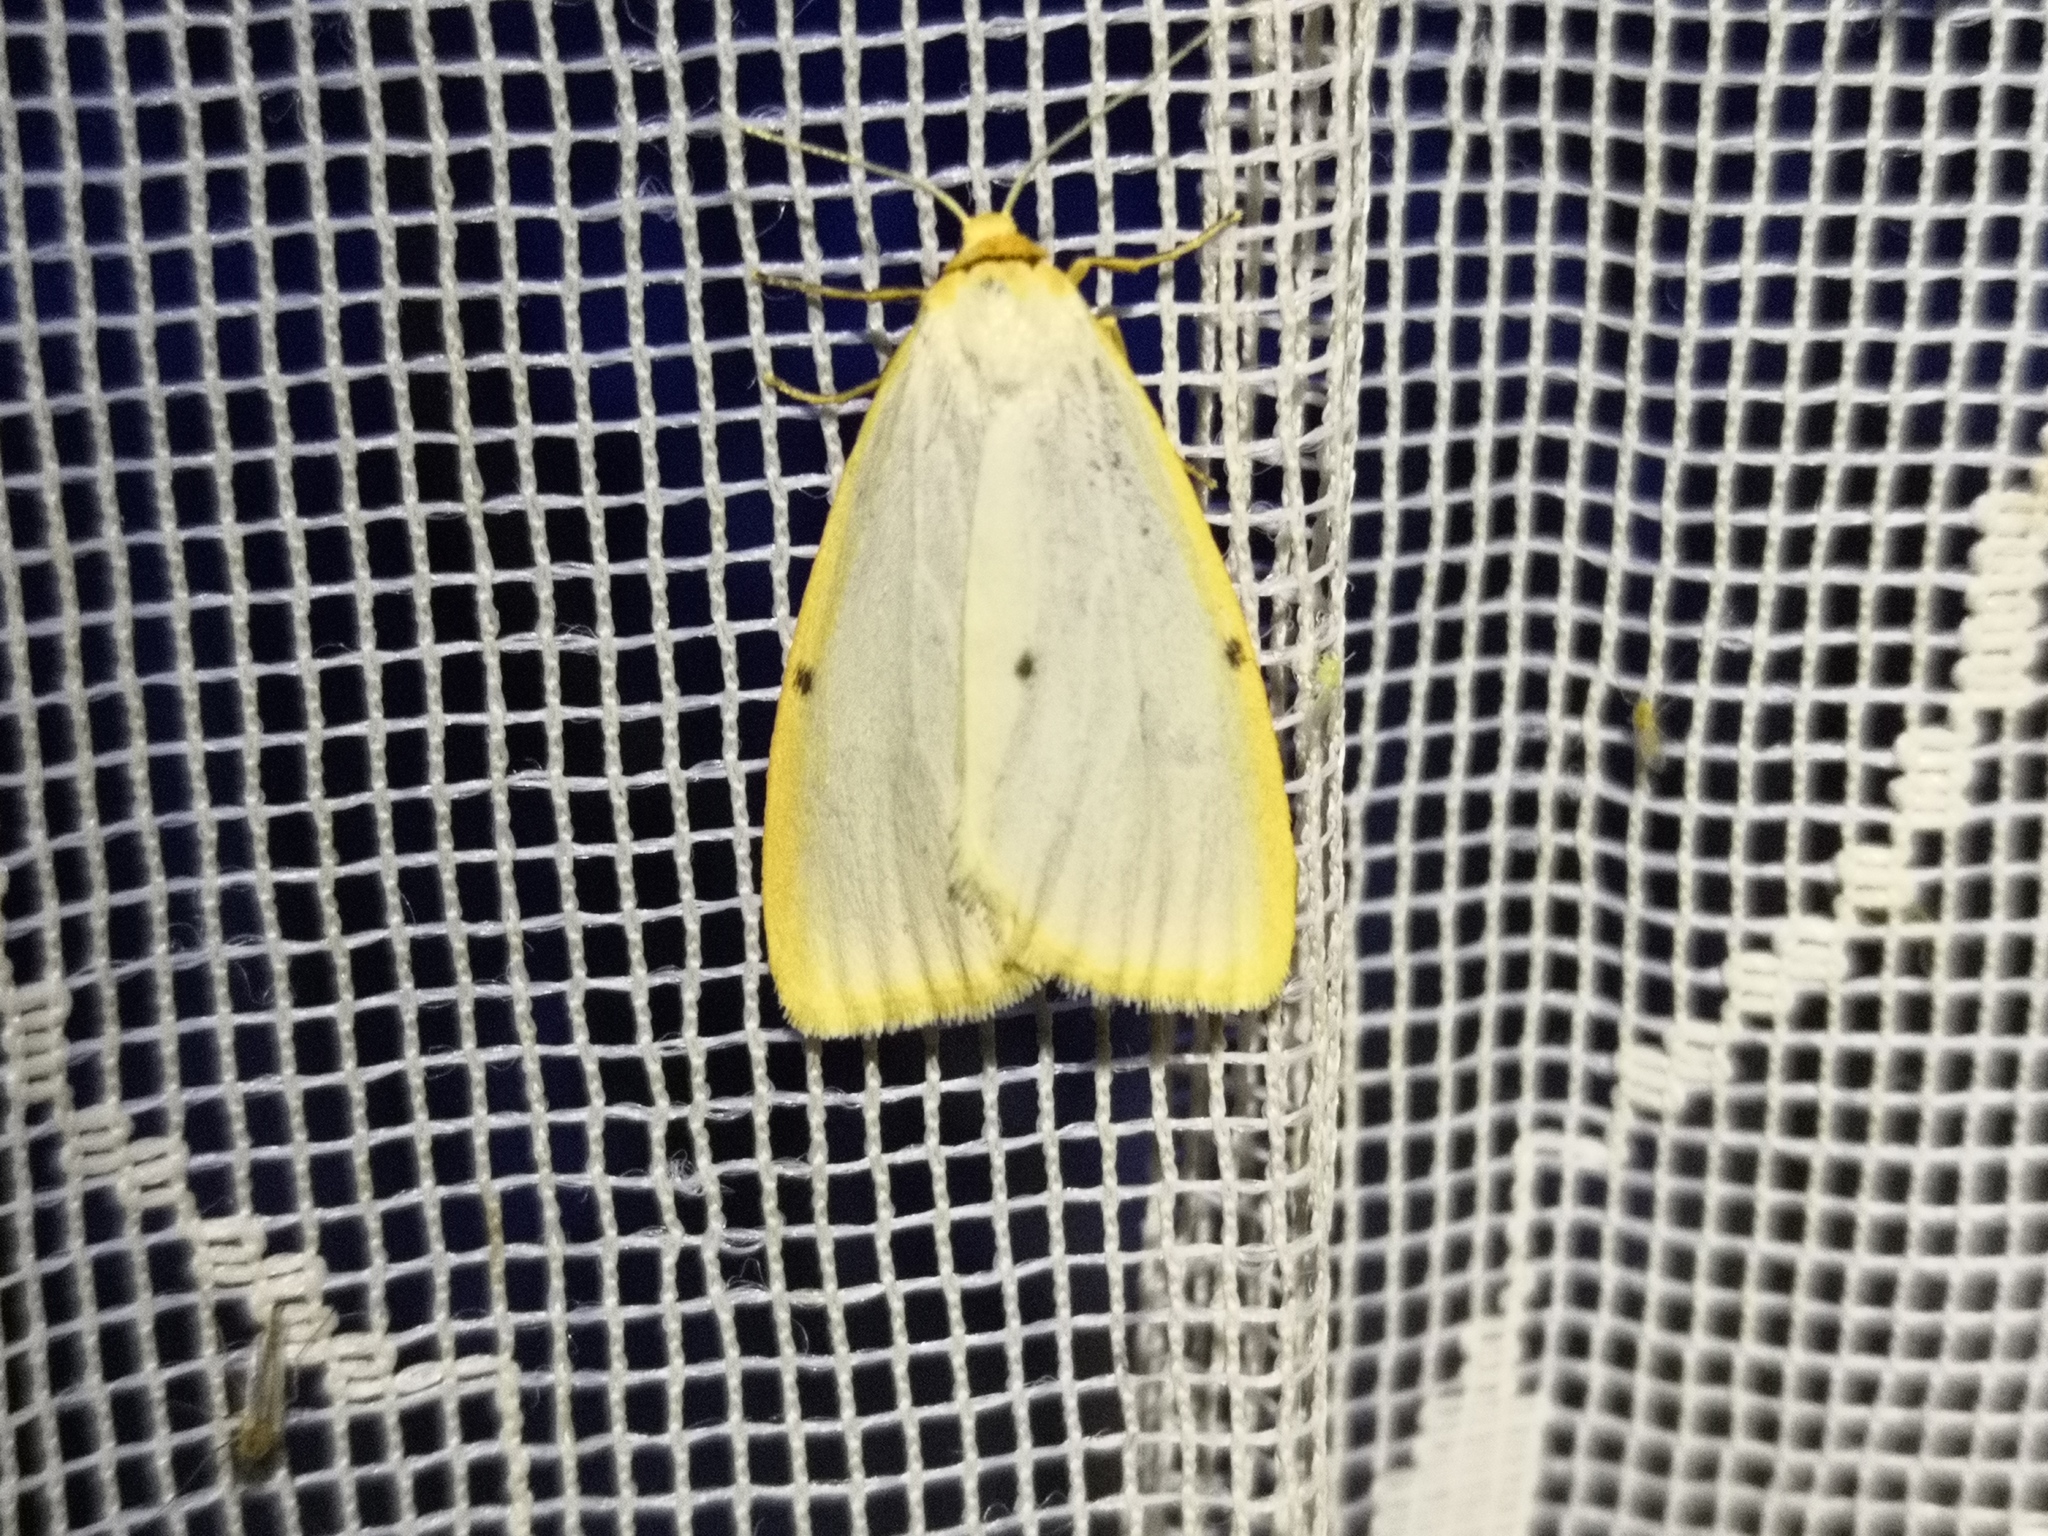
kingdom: Animalia
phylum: Arthropoda
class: Insecta
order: Lepidoptera
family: Erebidae
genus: Cybosia
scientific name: Cybosia mesomella
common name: Four-dotted footman
